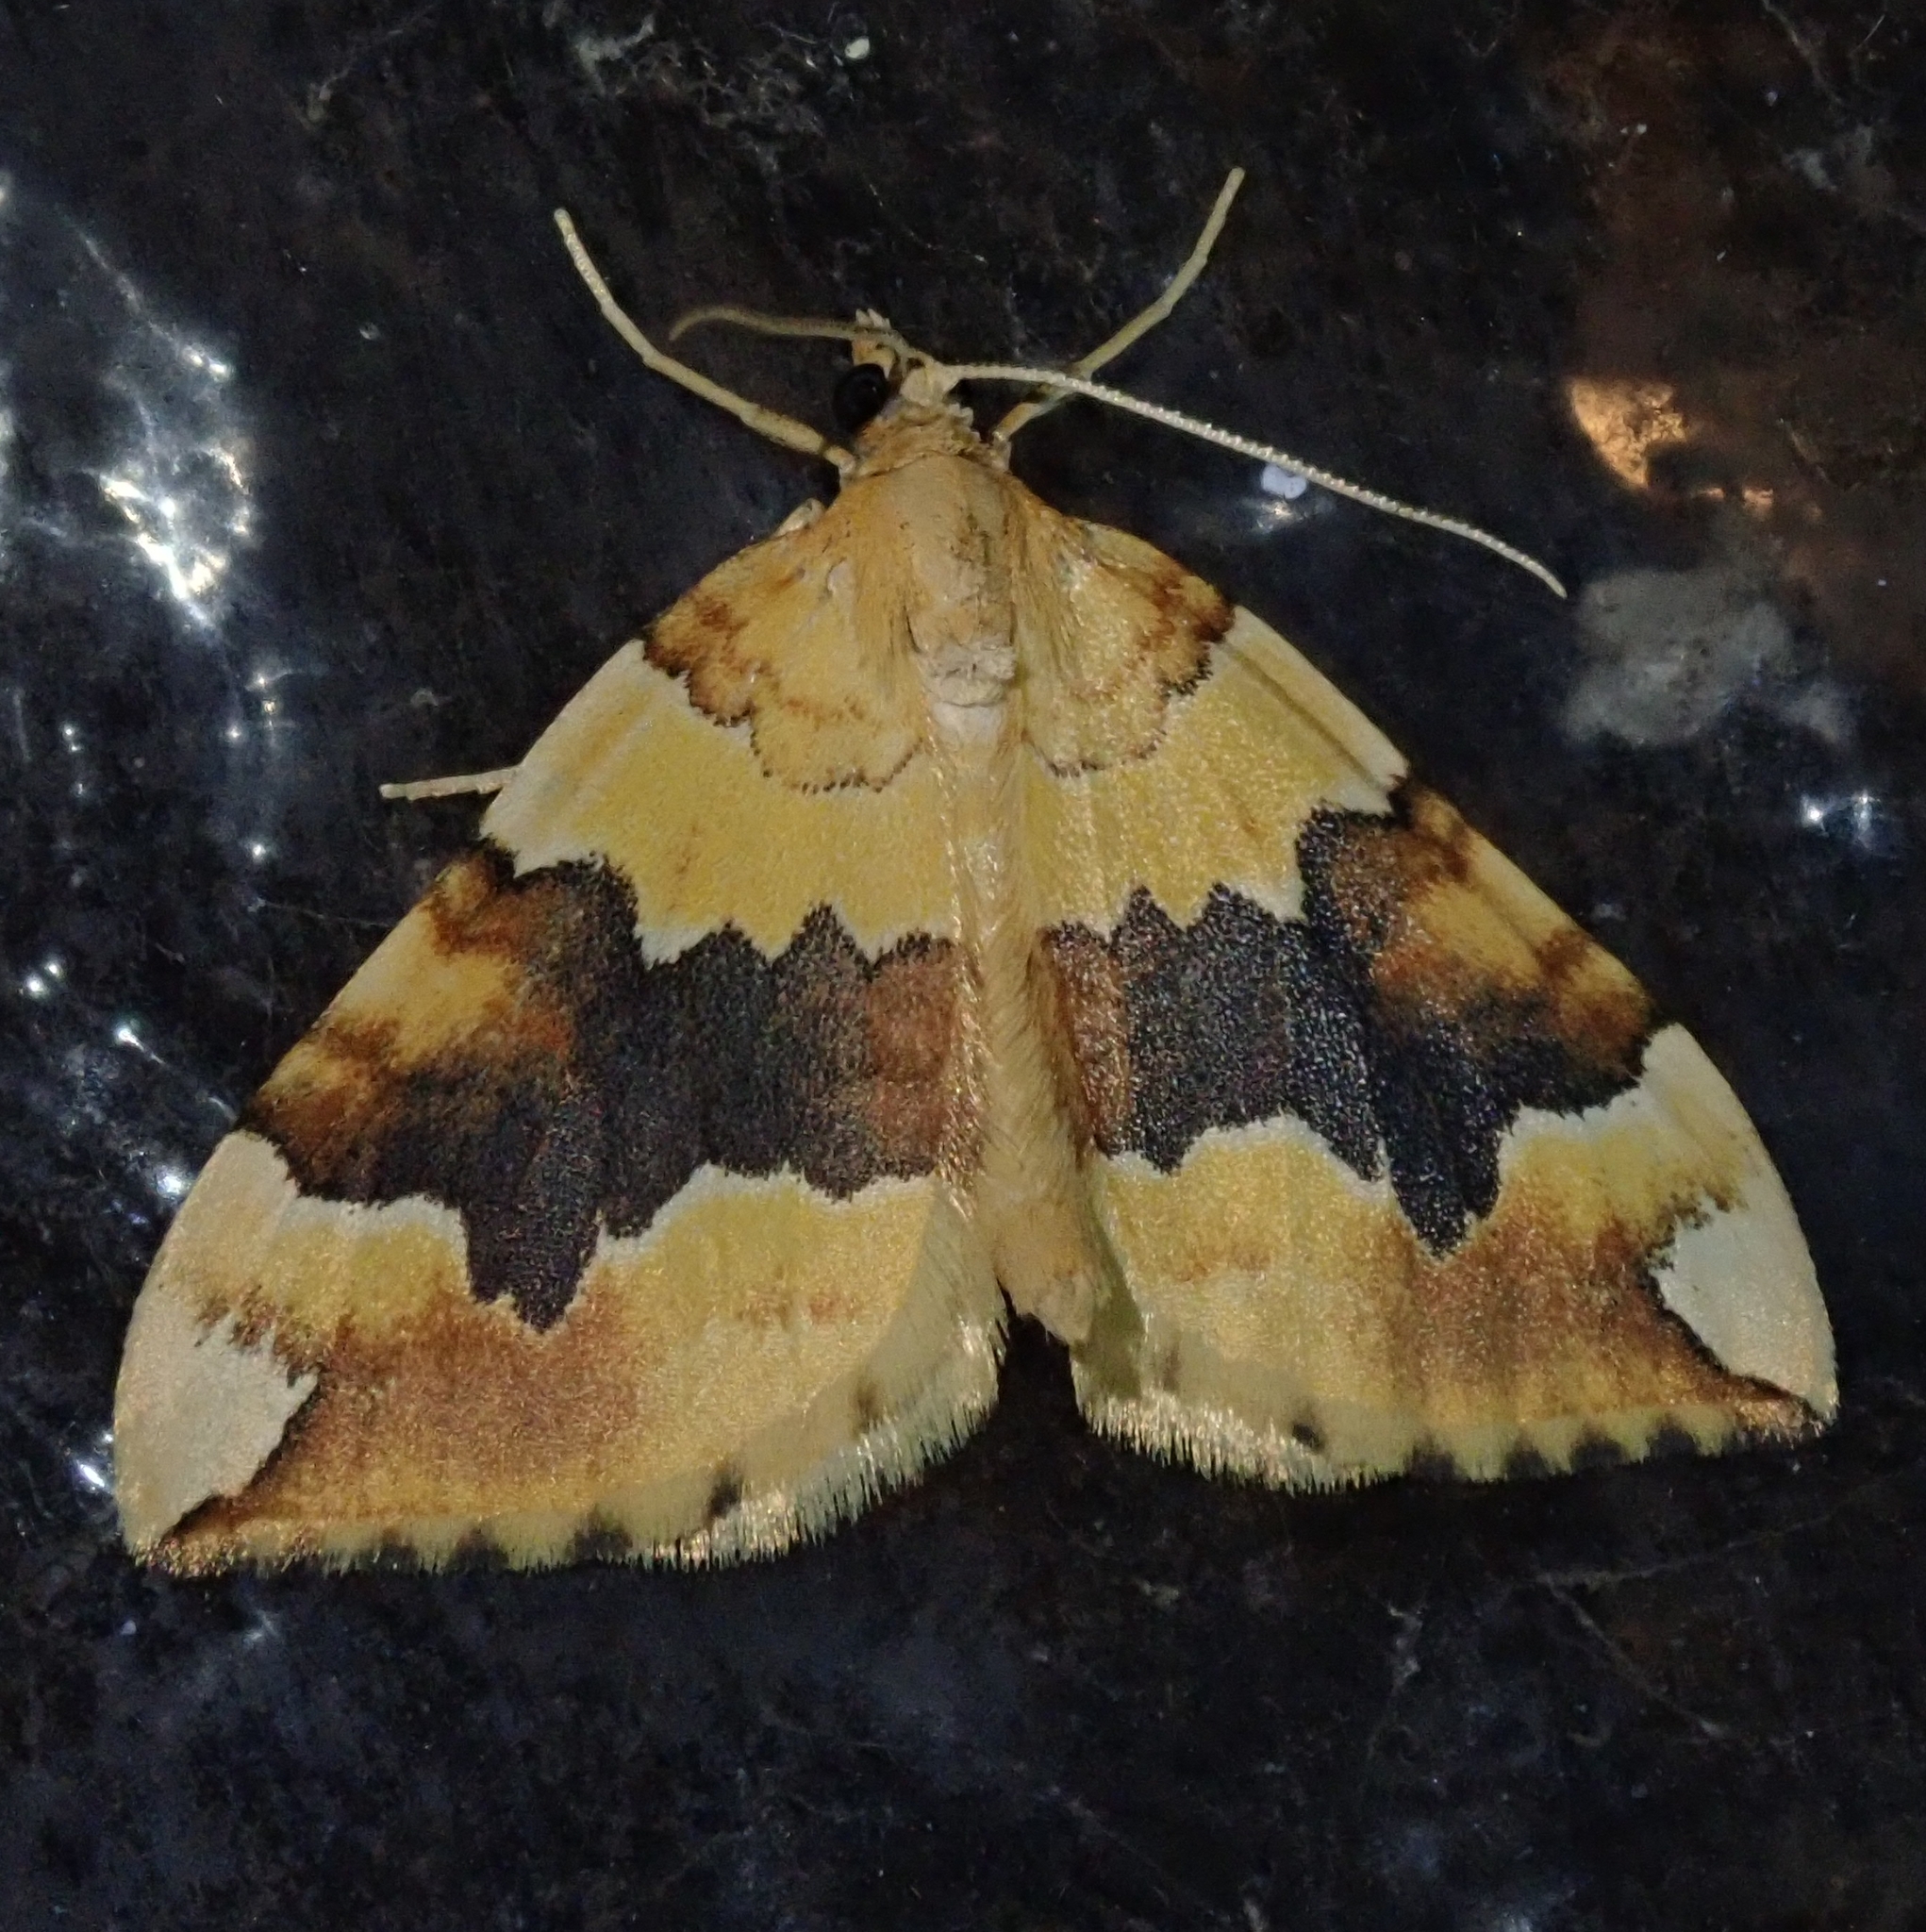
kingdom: Animalia
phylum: Arthropoda
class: Insecta
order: Lepidoptera
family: Geometridae
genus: Cidaria
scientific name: Cidaria fulvata
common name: Barred yellow
